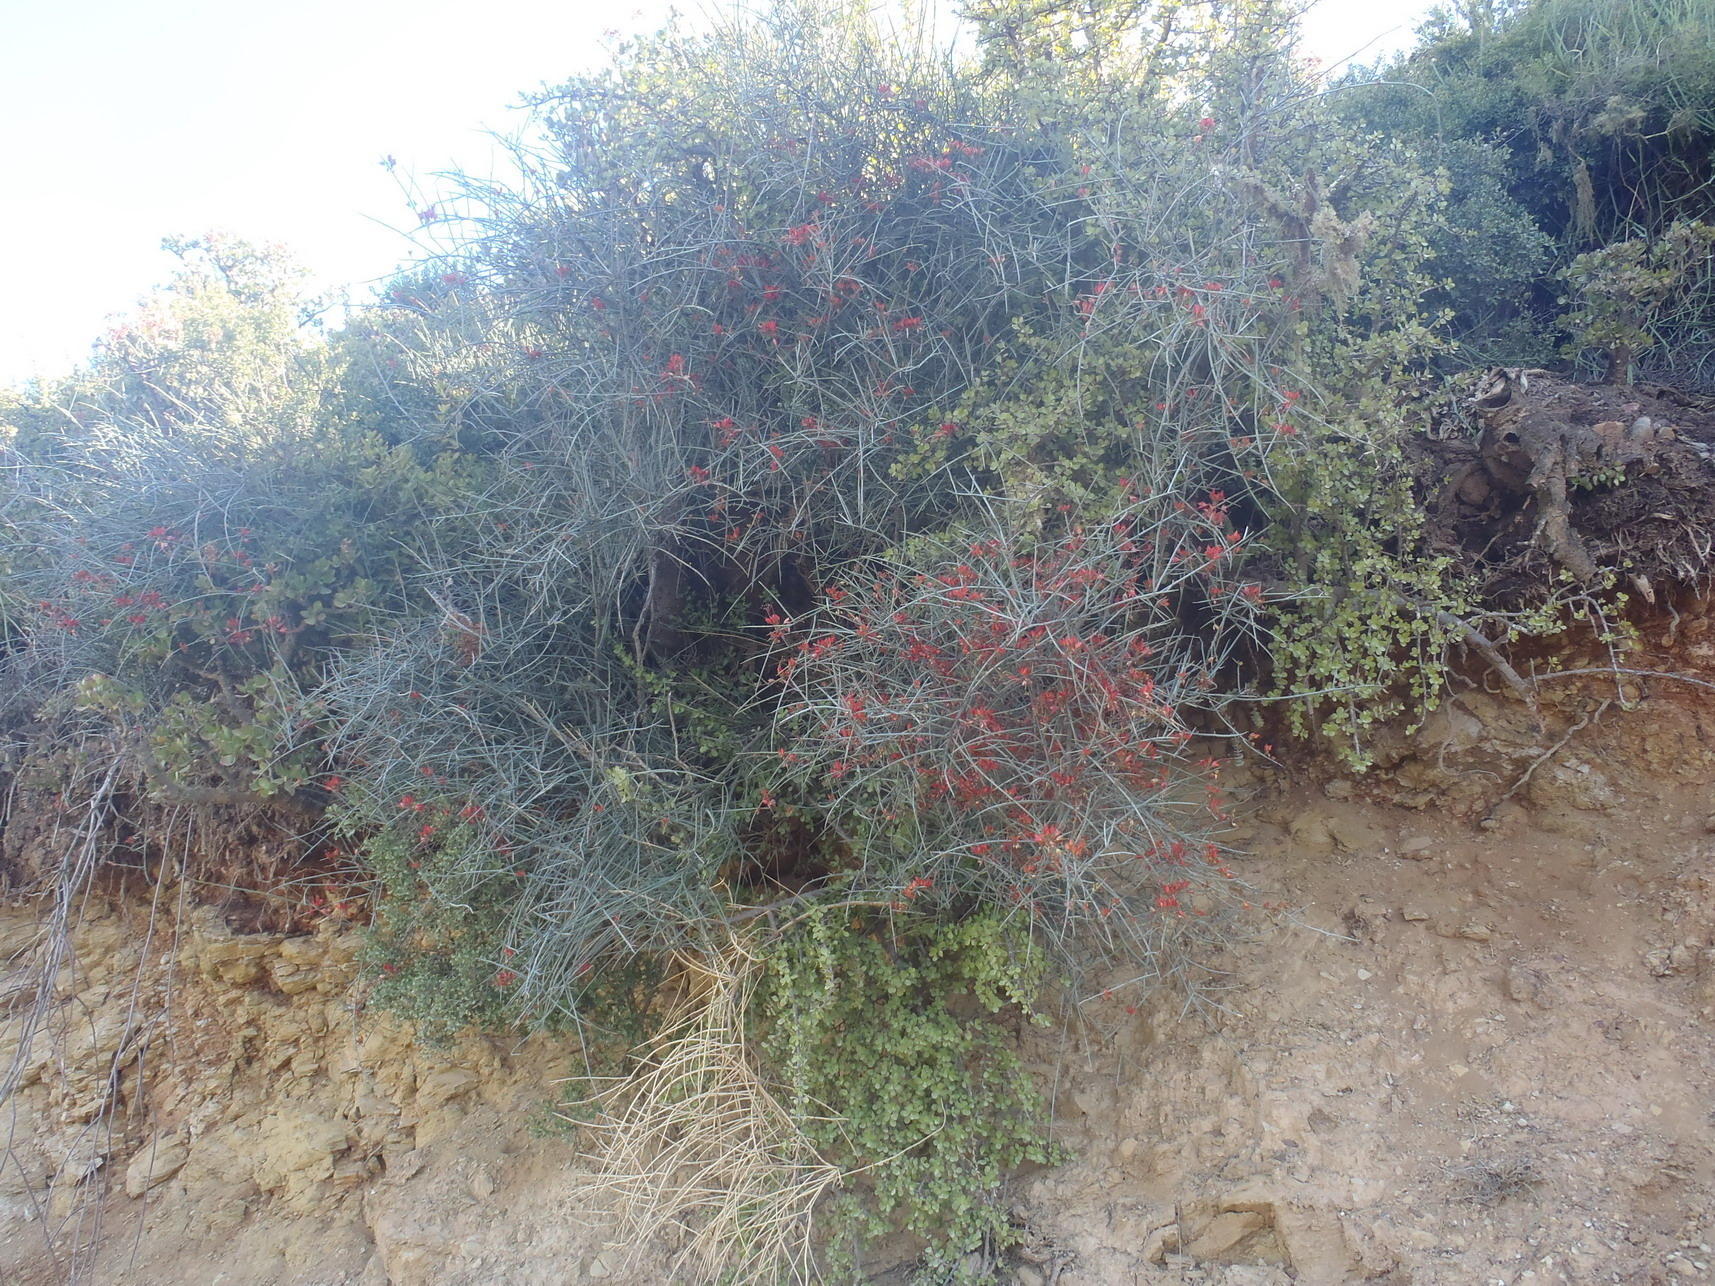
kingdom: Plantae
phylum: Tracheophyta
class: Magnoliopsida
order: Brassicales
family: Capparaceae
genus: Cadaba
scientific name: Cadaba aphylla
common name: Black storm
